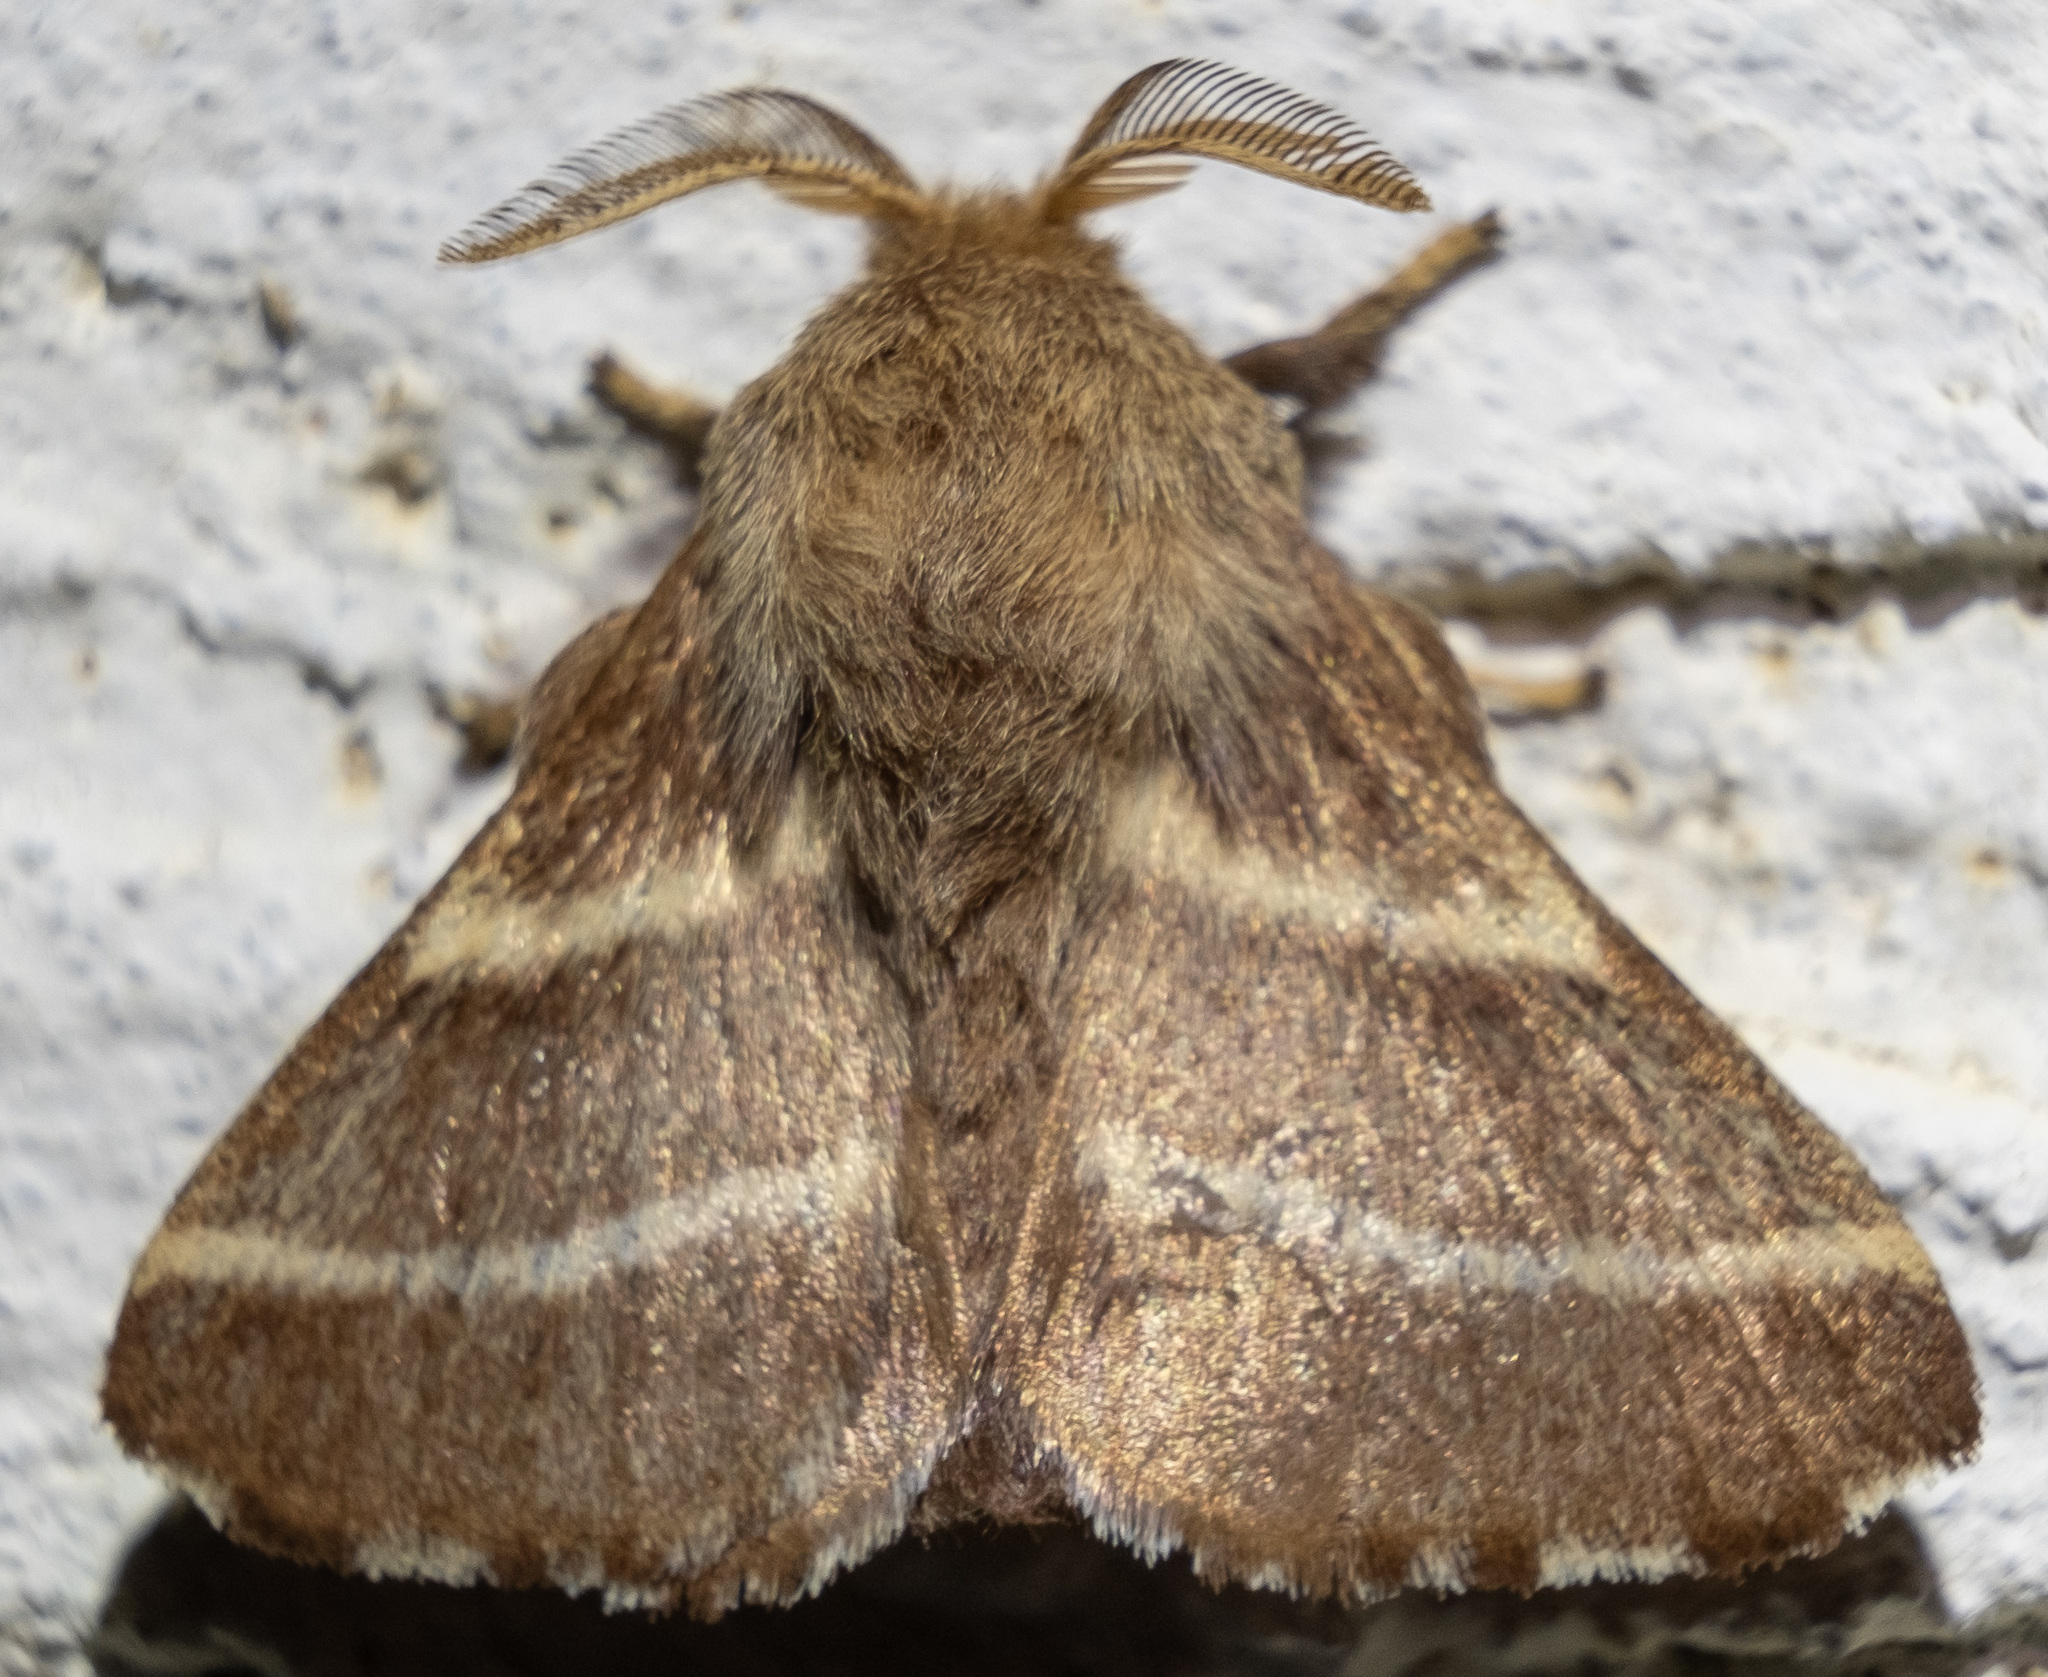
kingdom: Animalia
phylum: Arthropoda
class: Insecta
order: Lepidoptera
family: Lasiocampidae
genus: Malacosoma
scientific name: Malacosoma americana
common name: Eastern tent caterpillar moth
